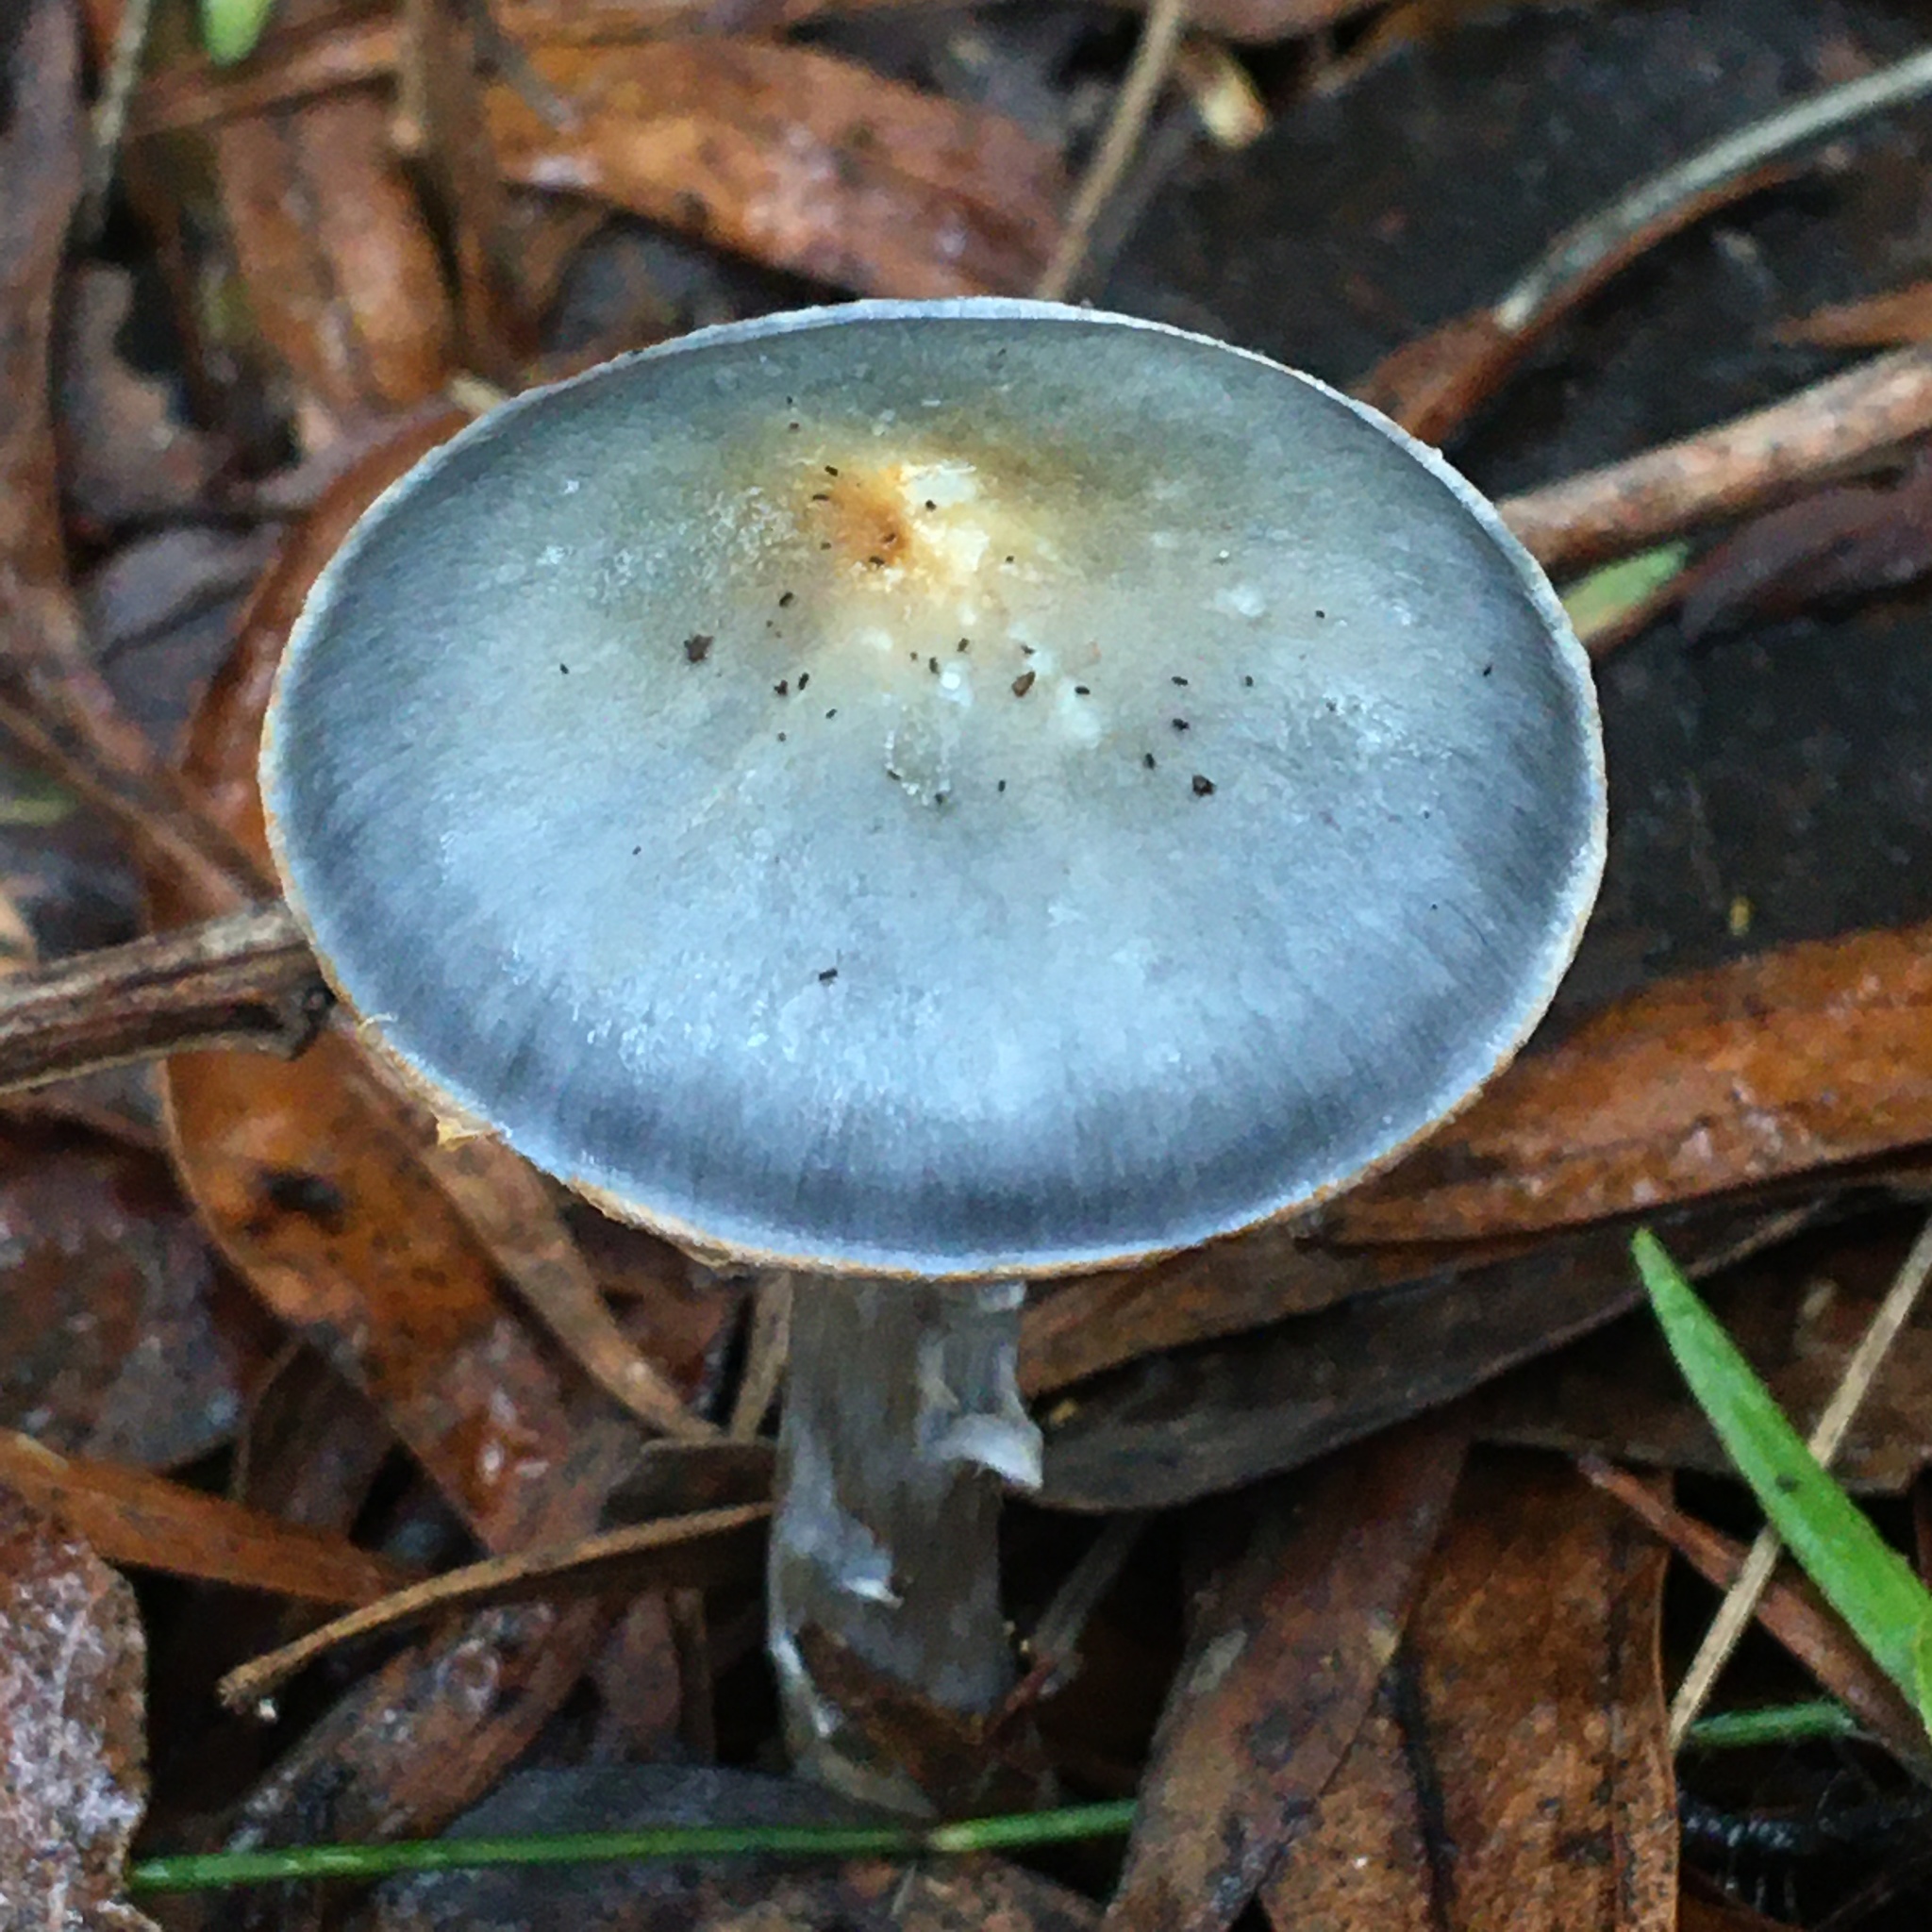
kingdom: Fungi
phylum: Basidiomycota
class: Agaricomycetes
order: Agaricales
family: Cortinariaceae
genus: Cortinarius
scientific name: Cortinarius rotundisporus
